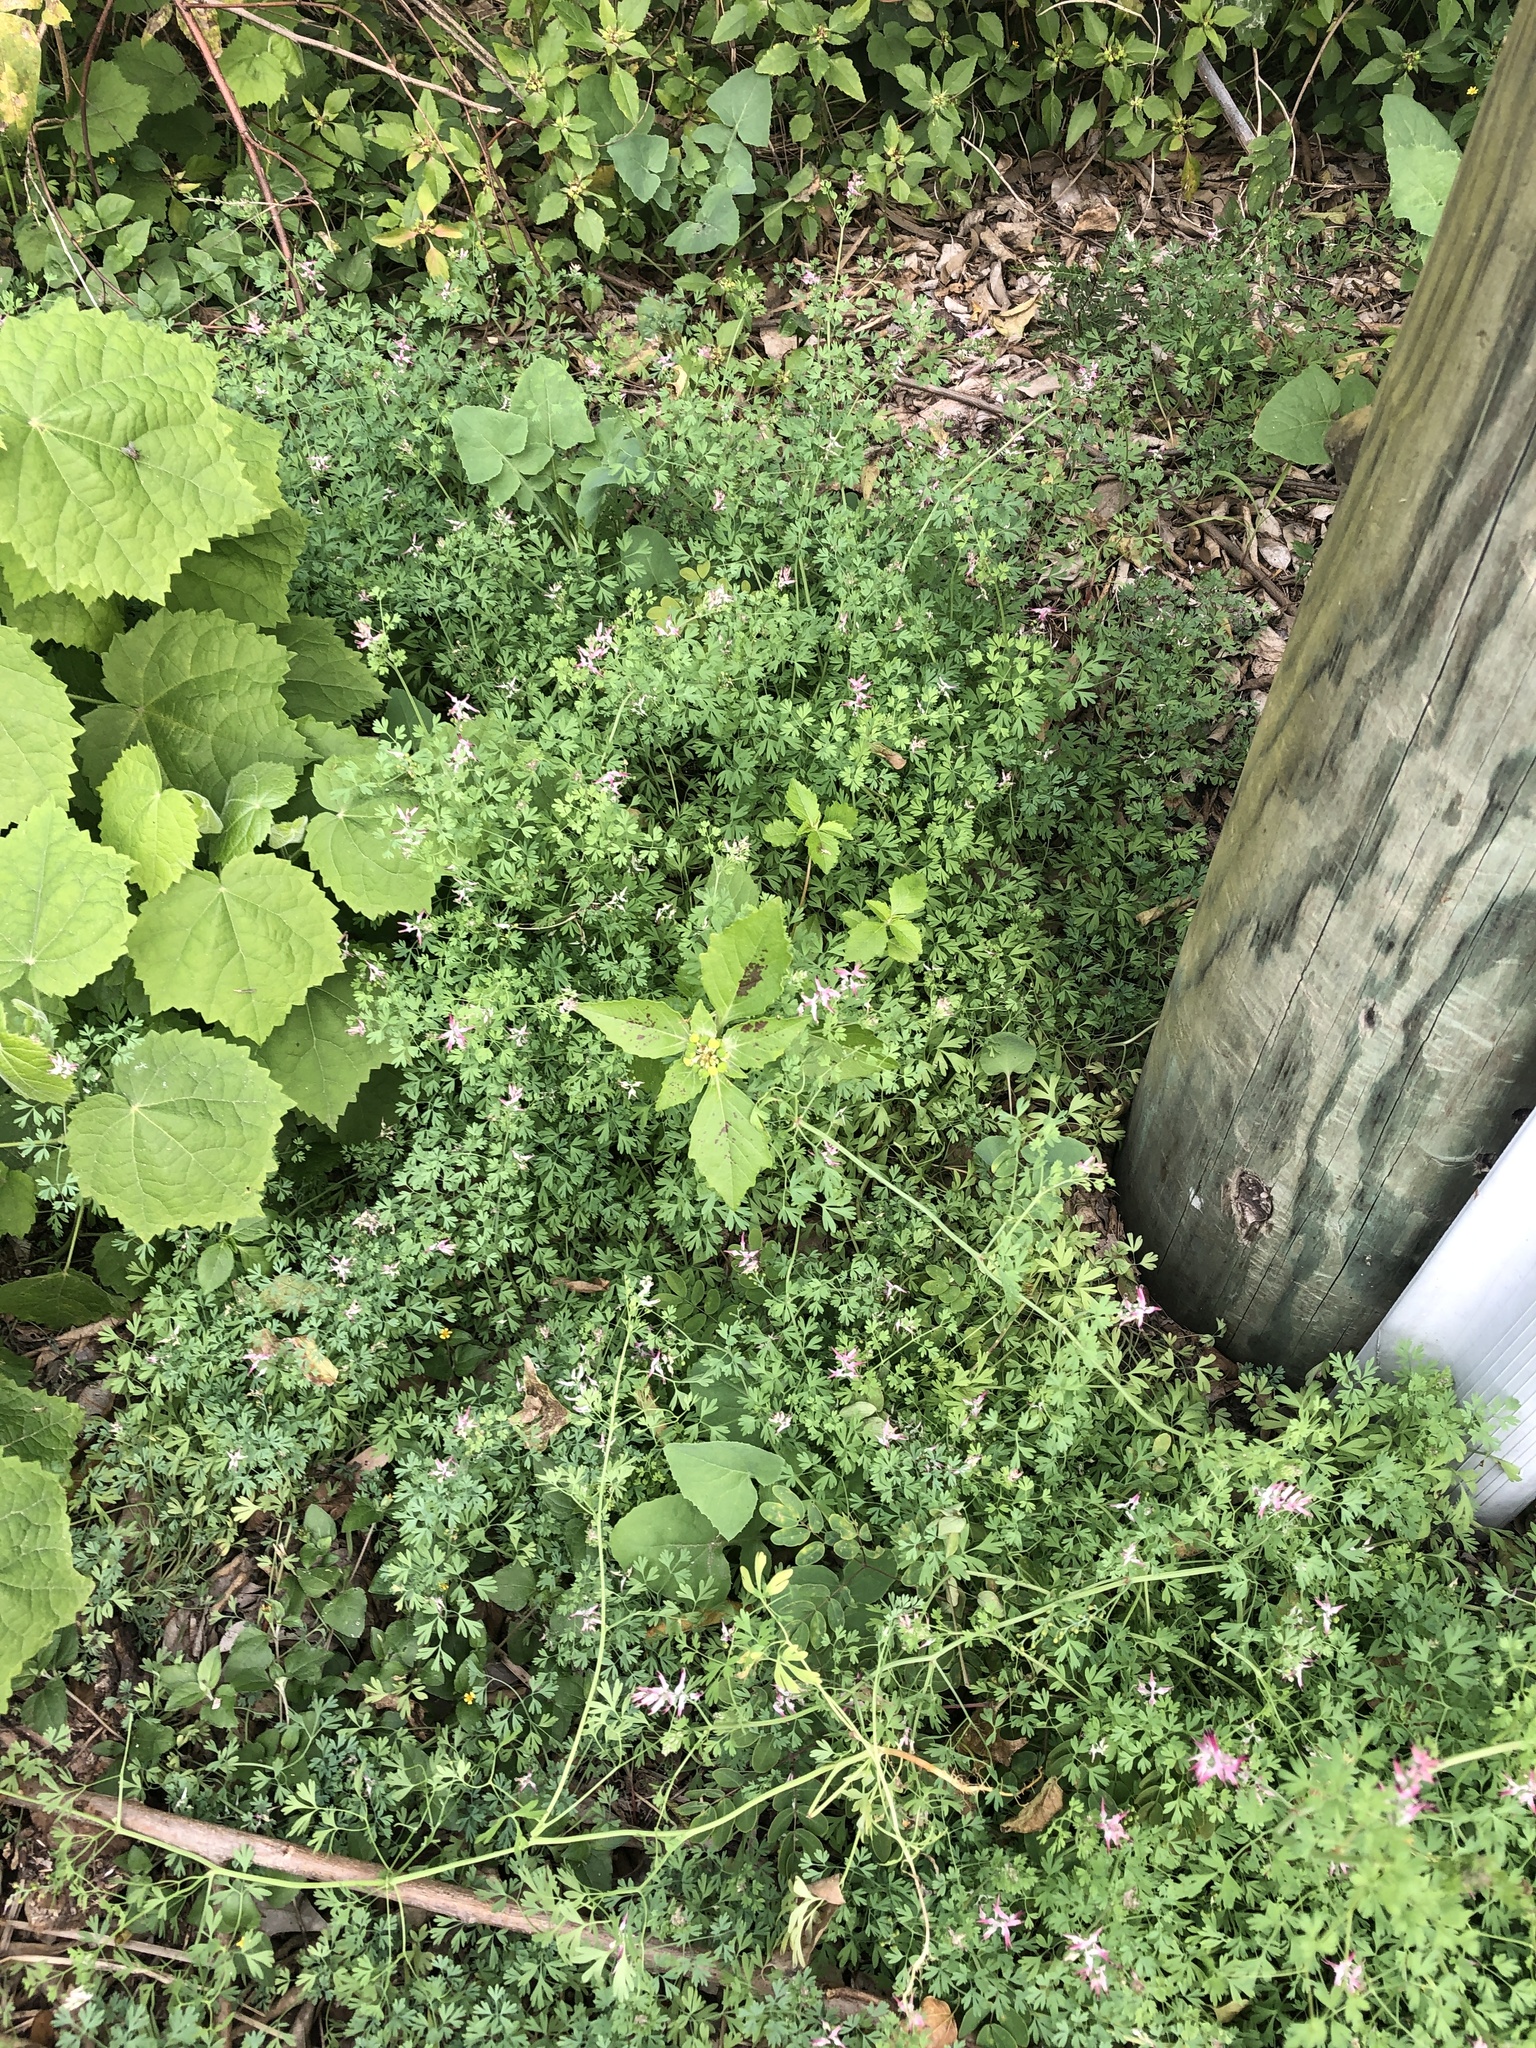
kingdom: Plantae
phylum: Tracheophyta
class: Magnoliopsida
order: Ranunculales
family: Papaveraceae
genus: Fumaria
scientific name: Fumaria muralis
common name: Common ramping-fumitory
